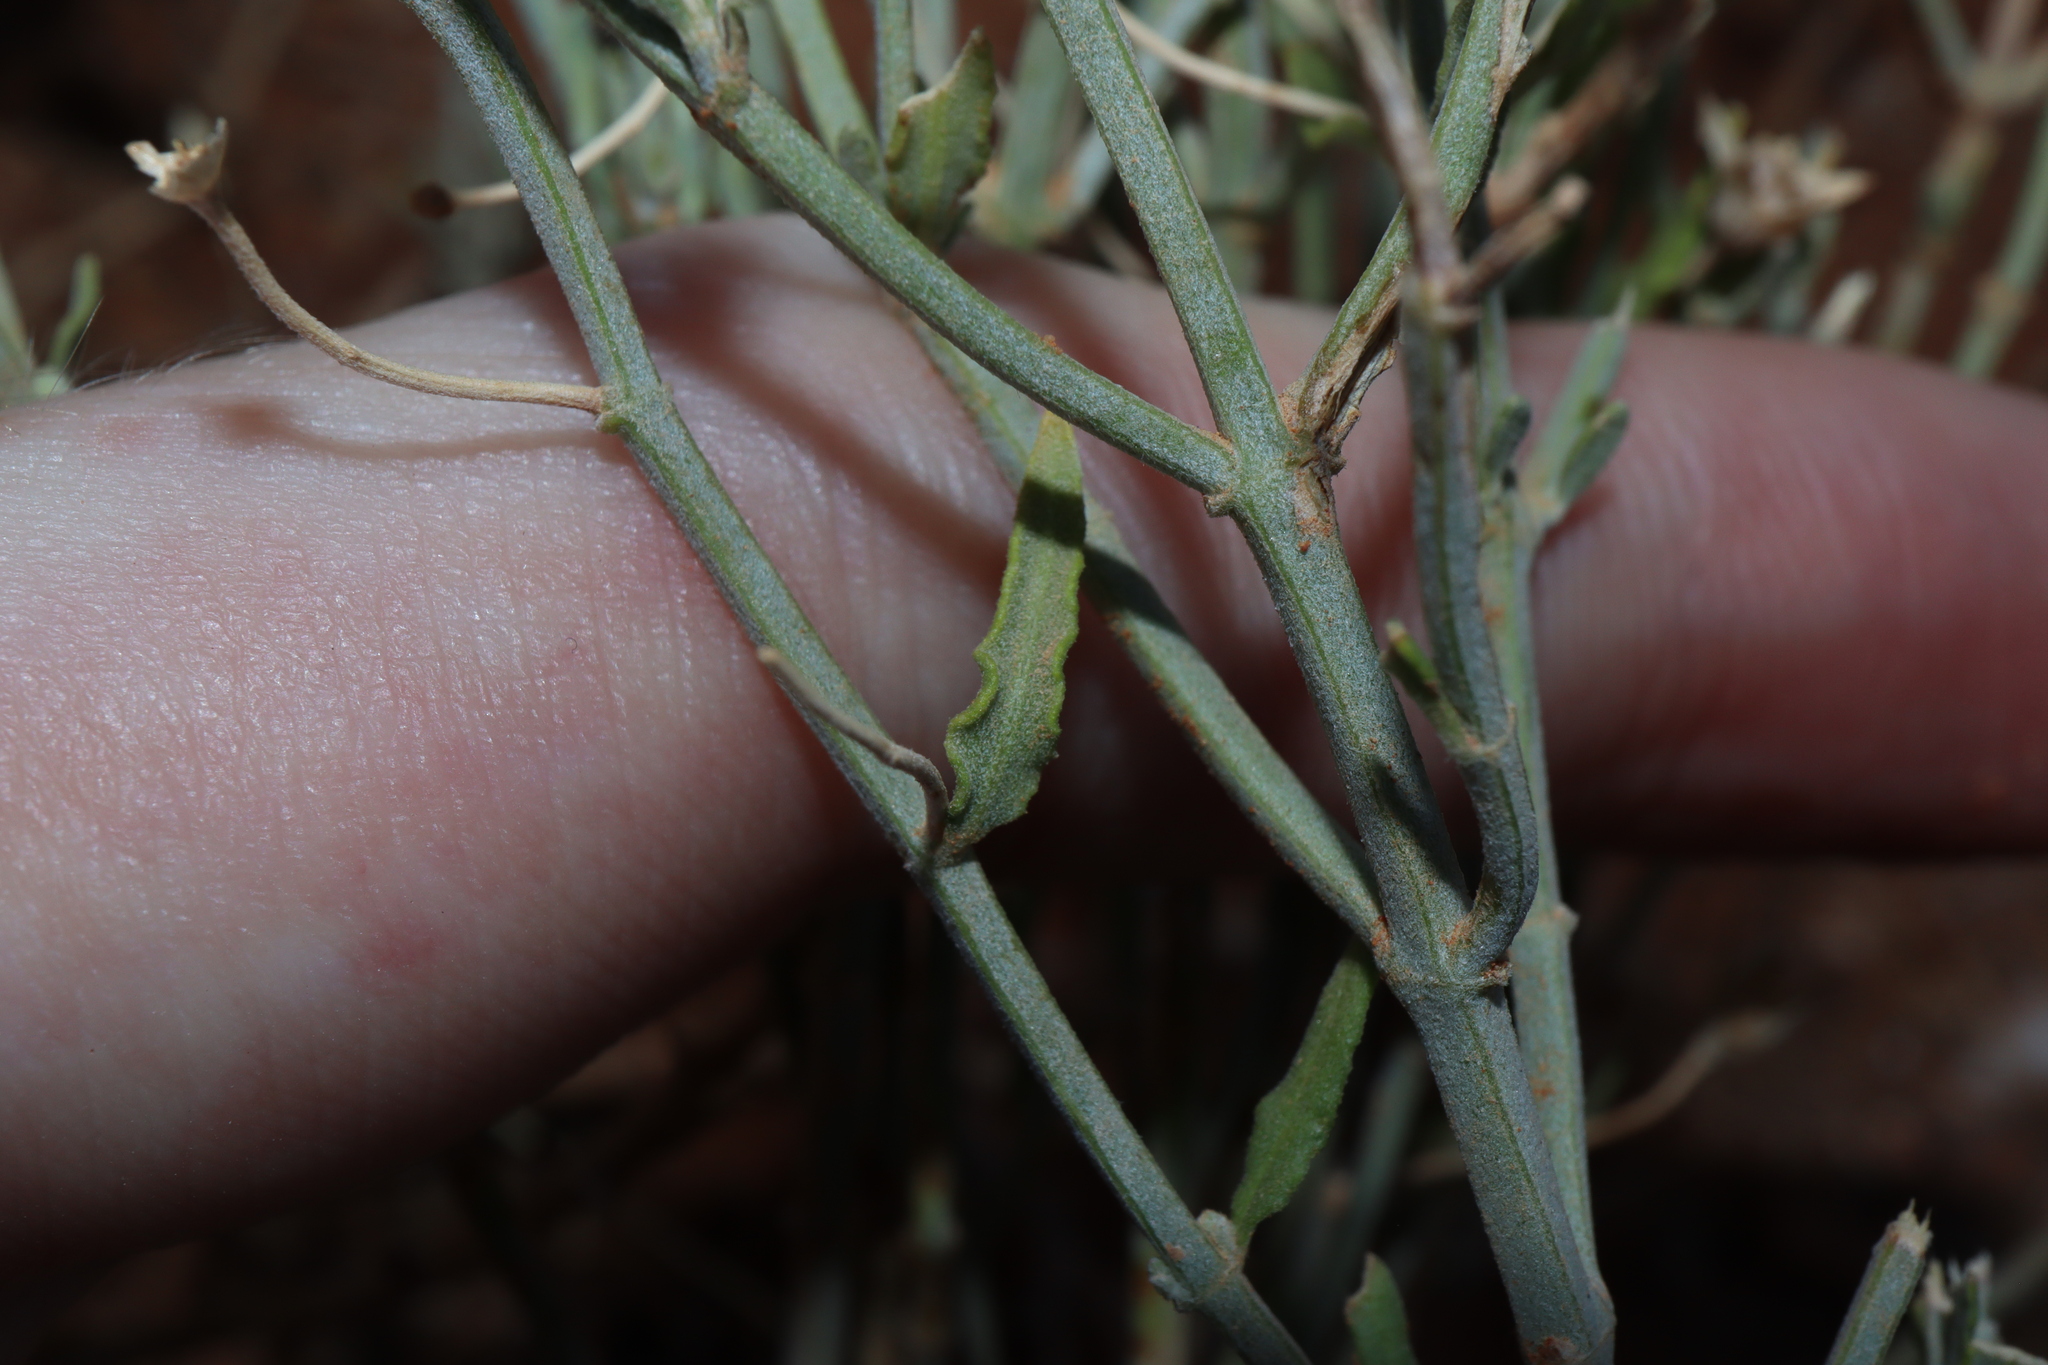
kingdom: Plantae
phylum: Tracheophyta
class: Magnoliopsida
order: Lamiales
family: Lamiaceae
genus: Teucrium
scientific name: Teucrium racemosum
